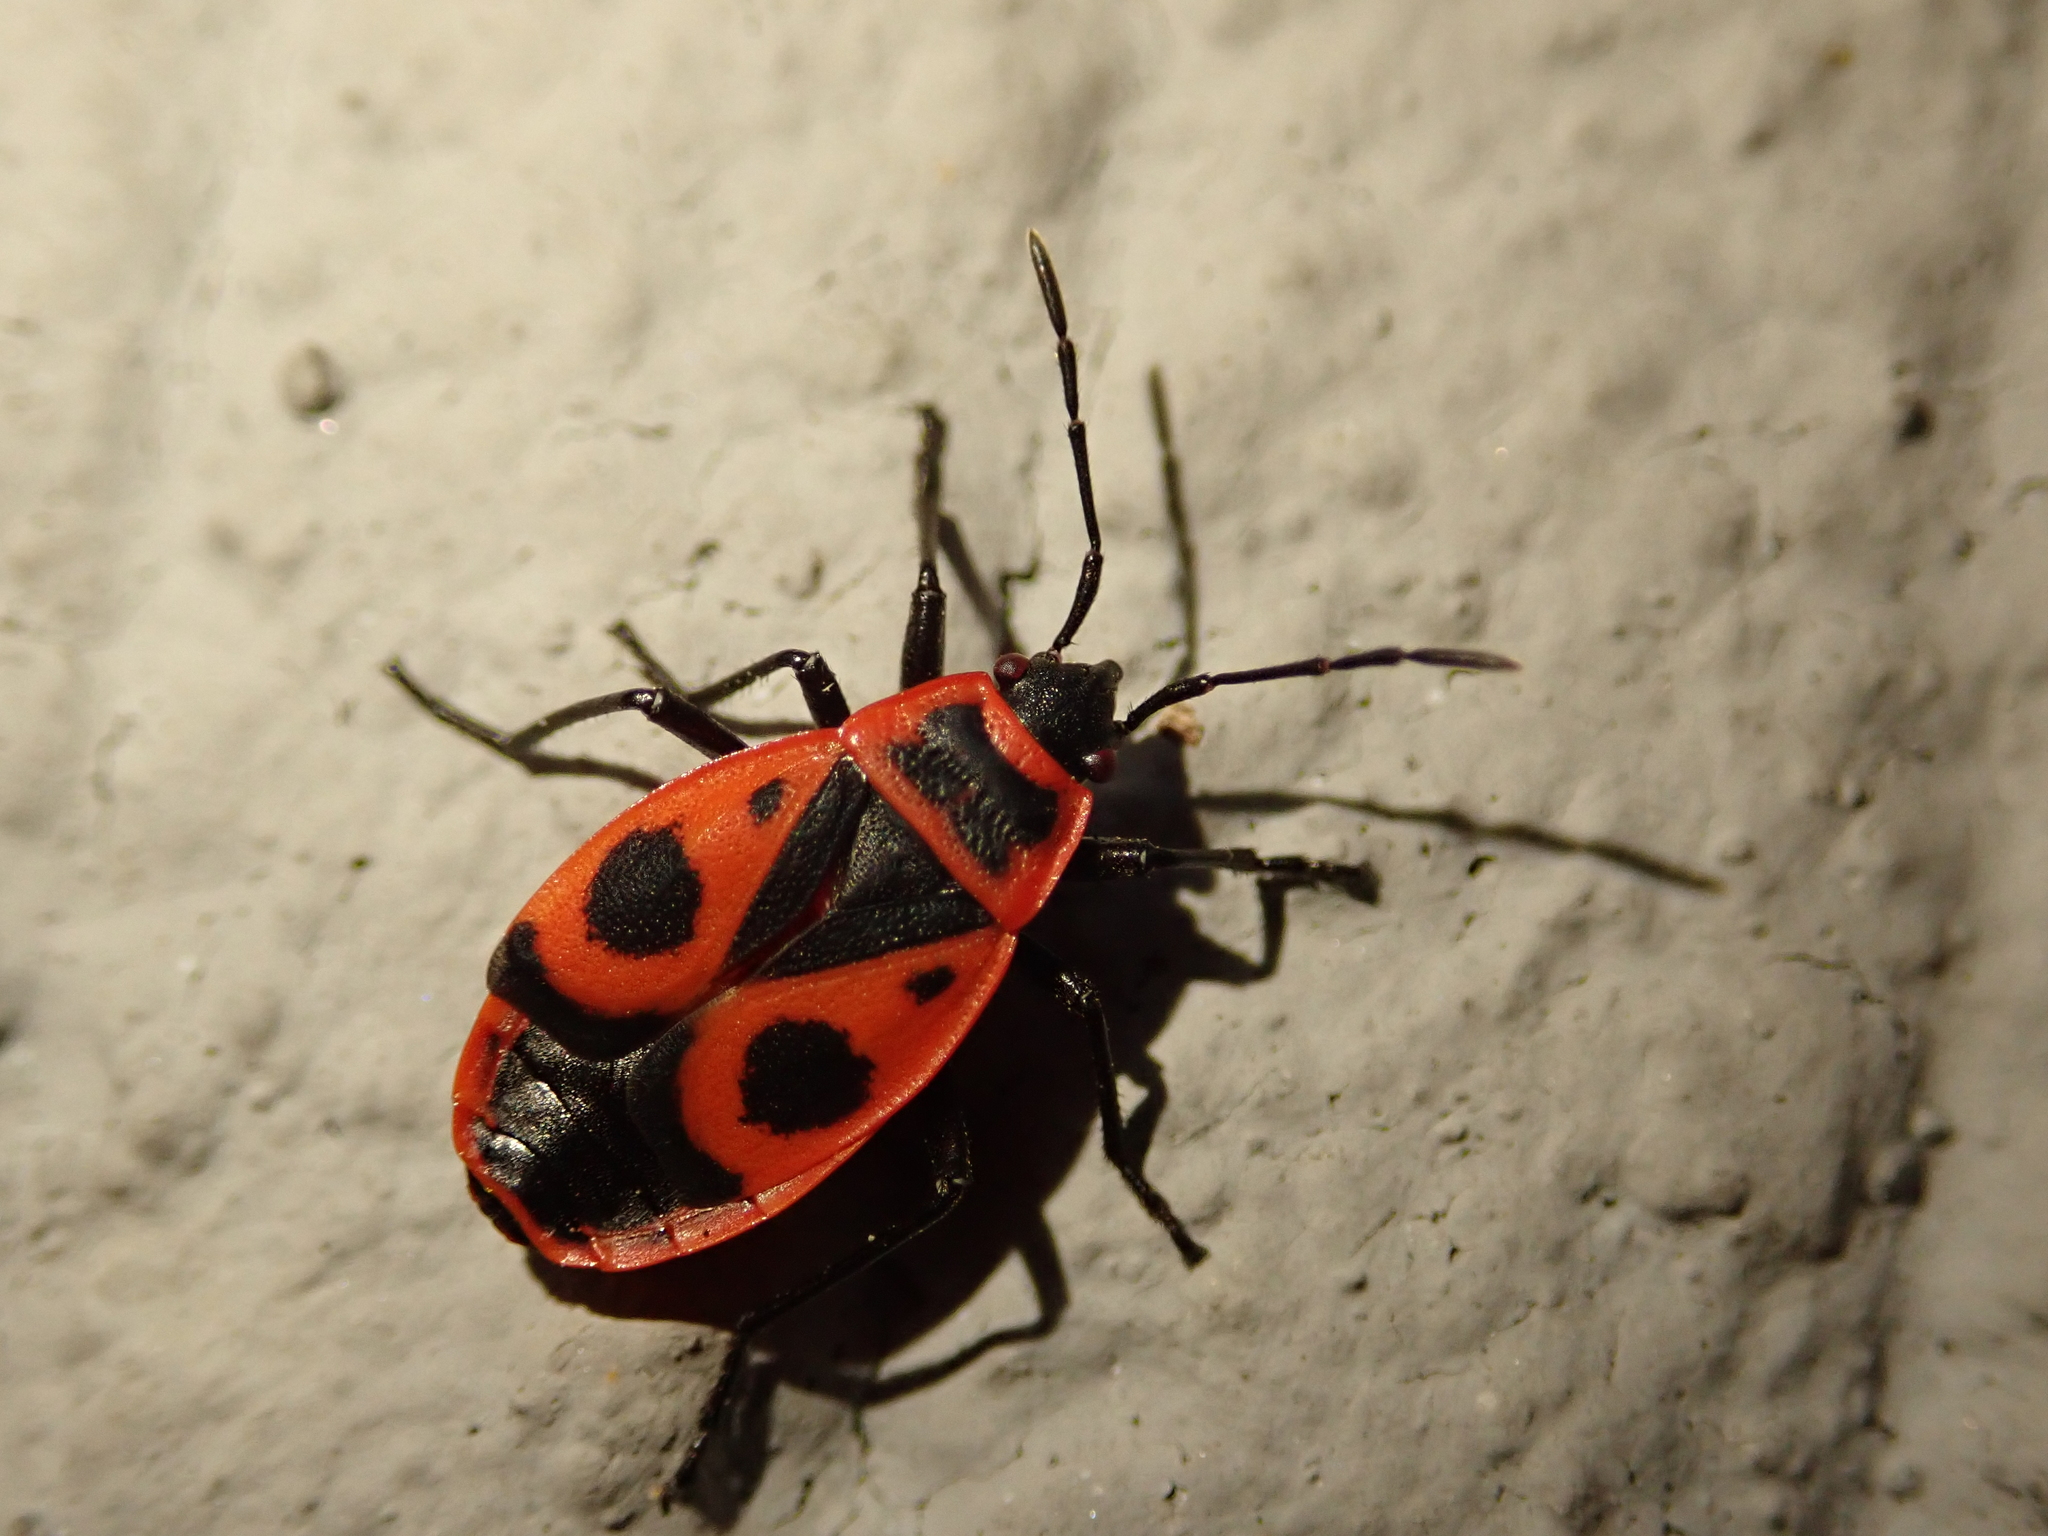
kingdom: Animalia
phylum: Arthropoda
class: Insecta
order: Hemiptera
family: Pyrrhocoridae
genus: Pyrrhocoris
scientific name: Pyrrhocoris apterus
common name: Firebug
